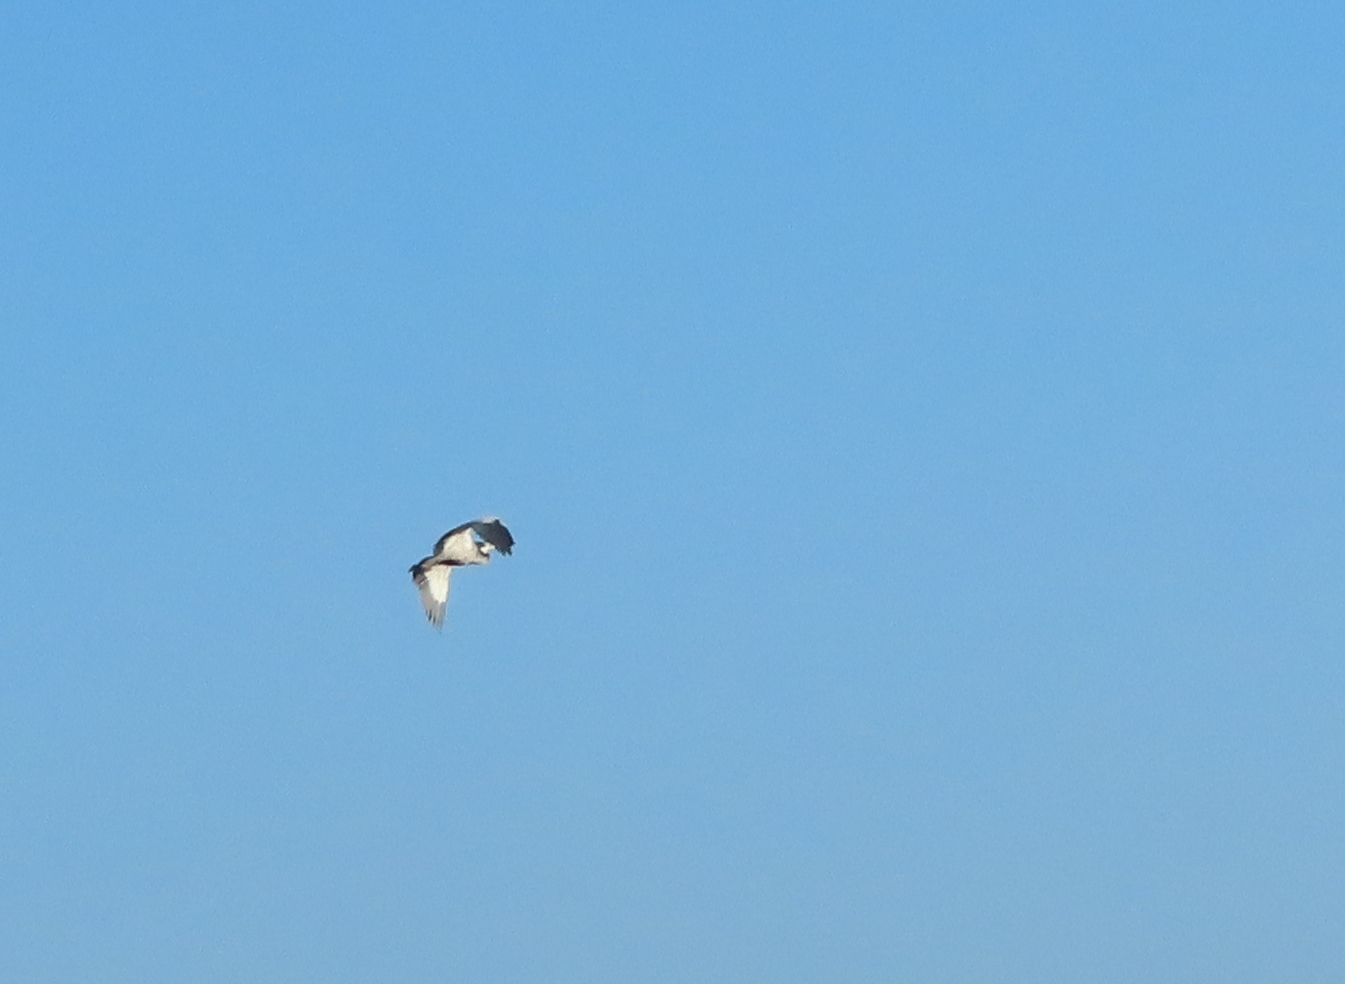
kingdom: Animalia
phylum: Chordata
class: Aves
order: Pelecaniformes
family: Ardeidae
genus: Ardea
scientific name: Ardea melanocephala
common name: Black-headed heron
